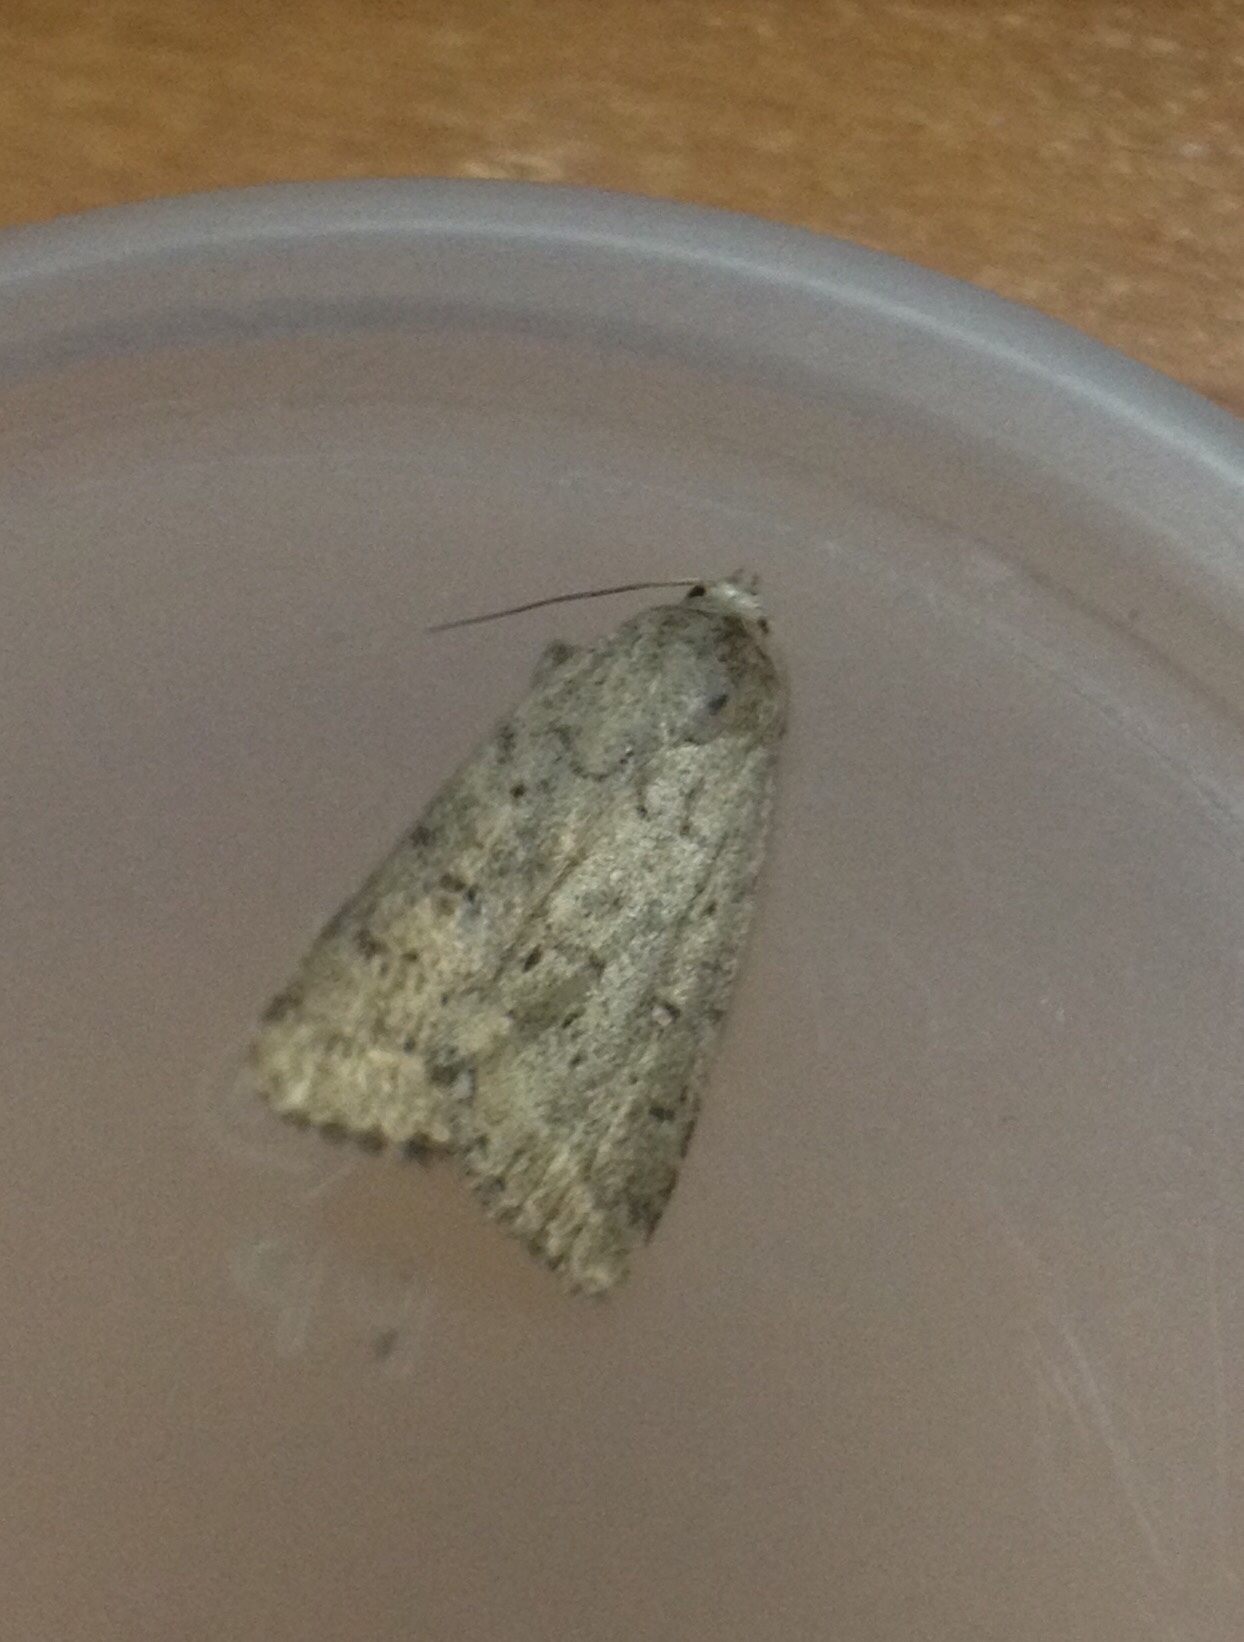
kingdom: Animalia
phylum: Arthropoda
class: Insecta
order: Lepidoptera
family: Noctuidae
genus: Athetis
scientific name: Athetis gluteosa
